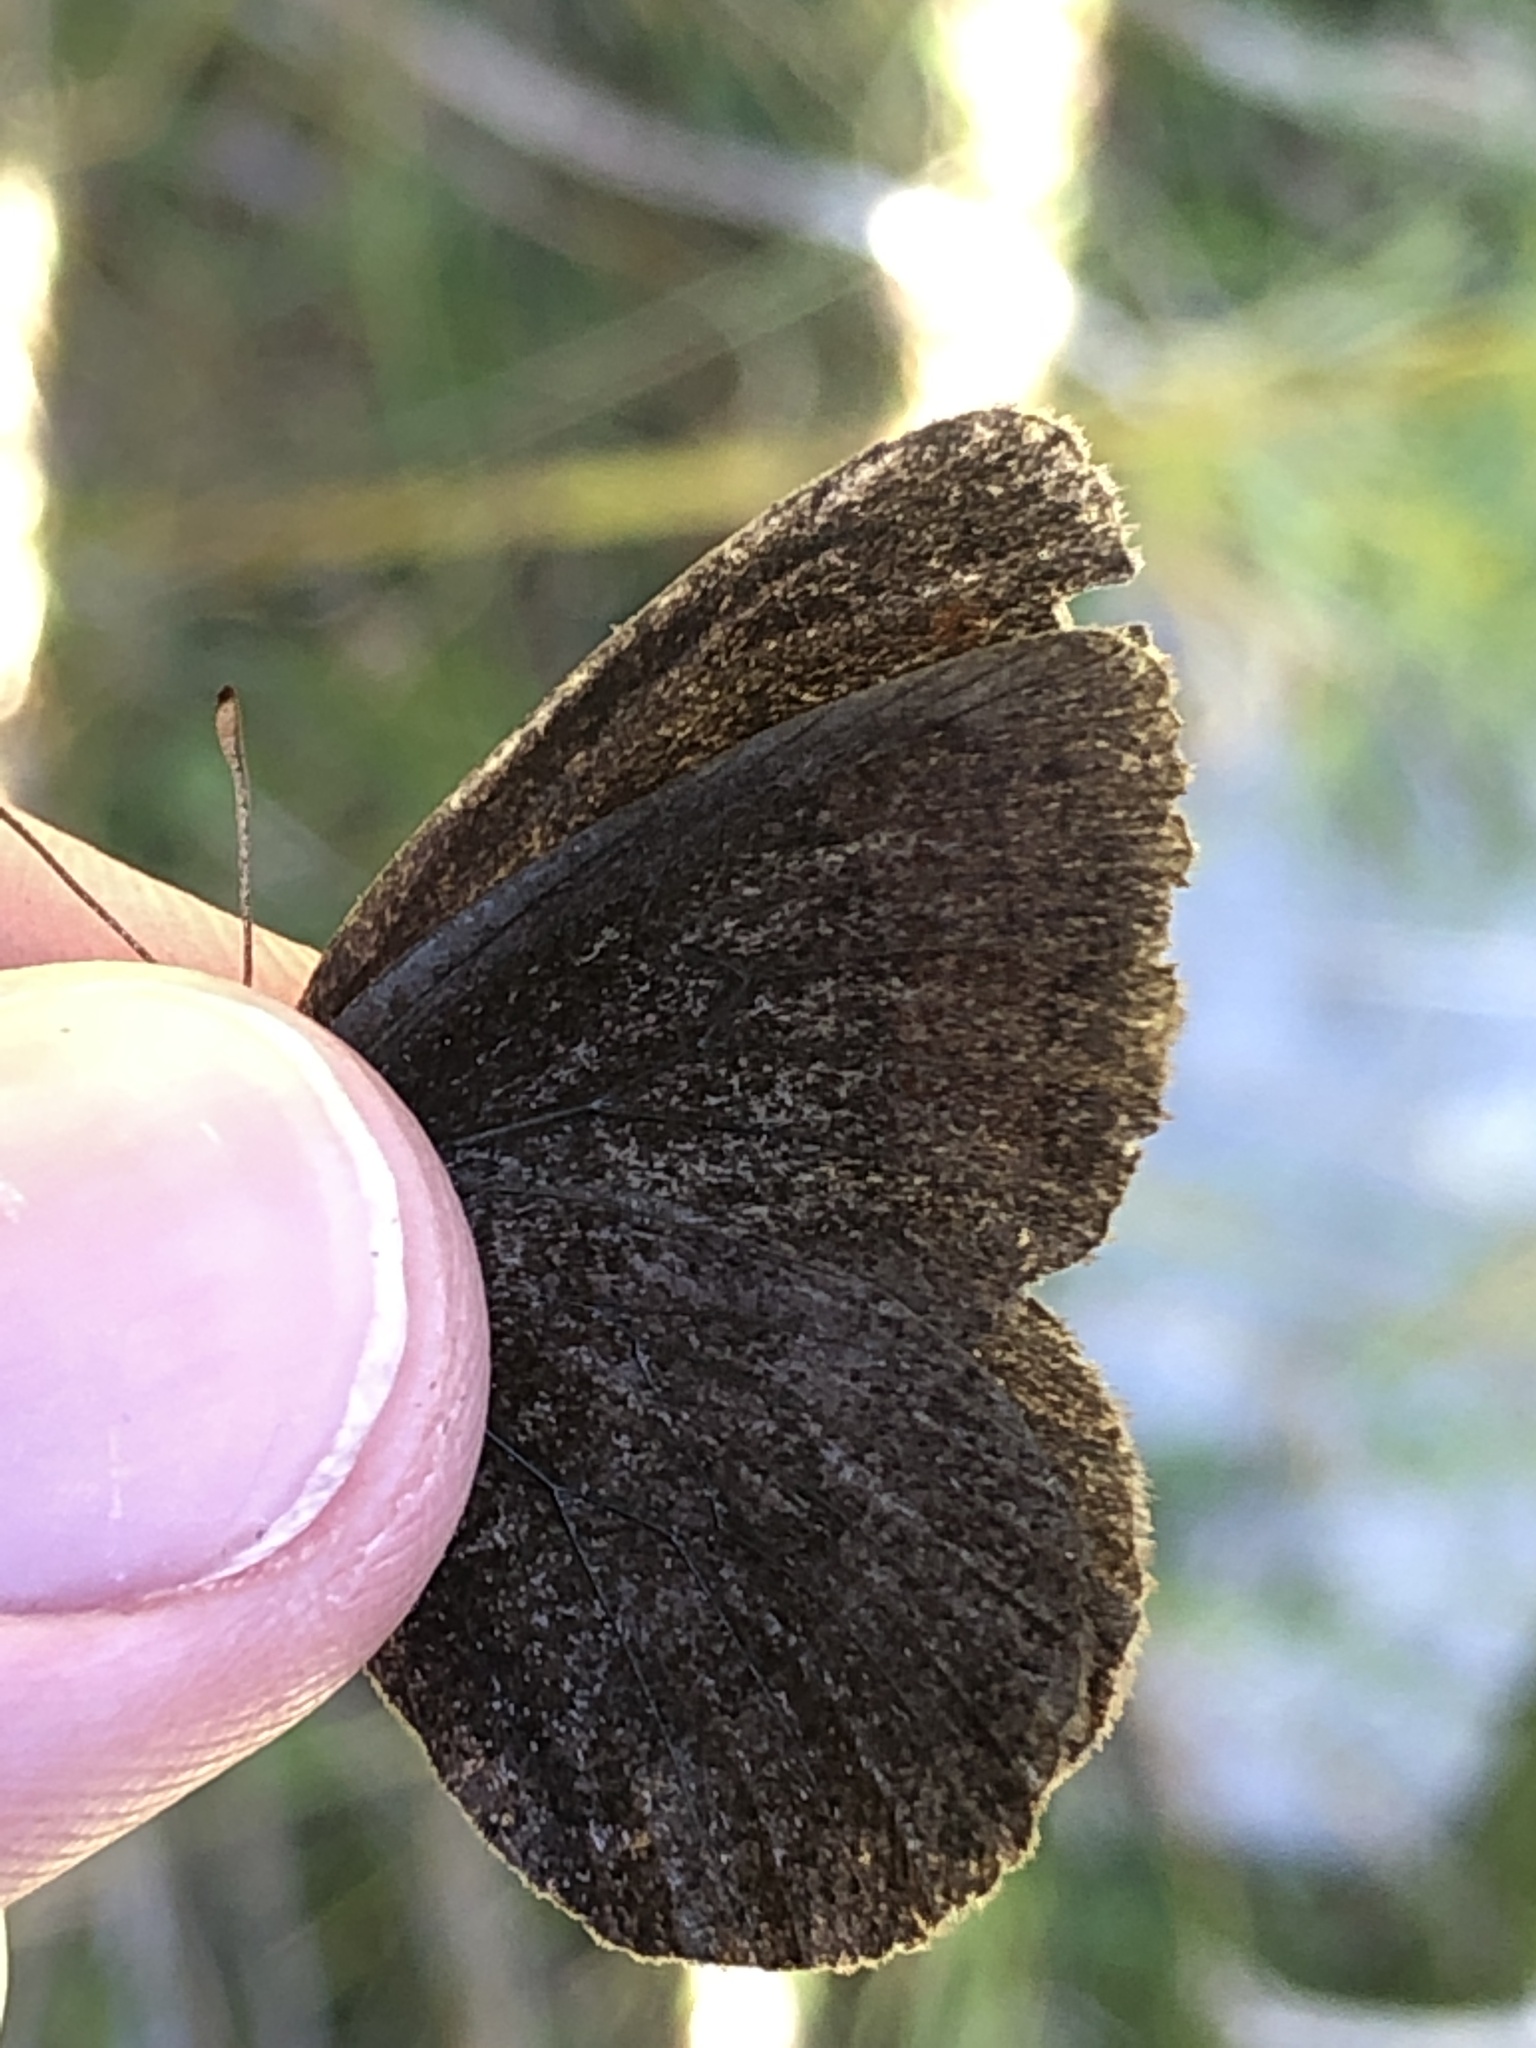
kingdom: Animalia
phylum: Arthropoda
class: Insecta
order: Lepidoptera
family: Nymphalidae
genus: Erebia
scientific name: Erebia pronoe
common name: Water ringlet
